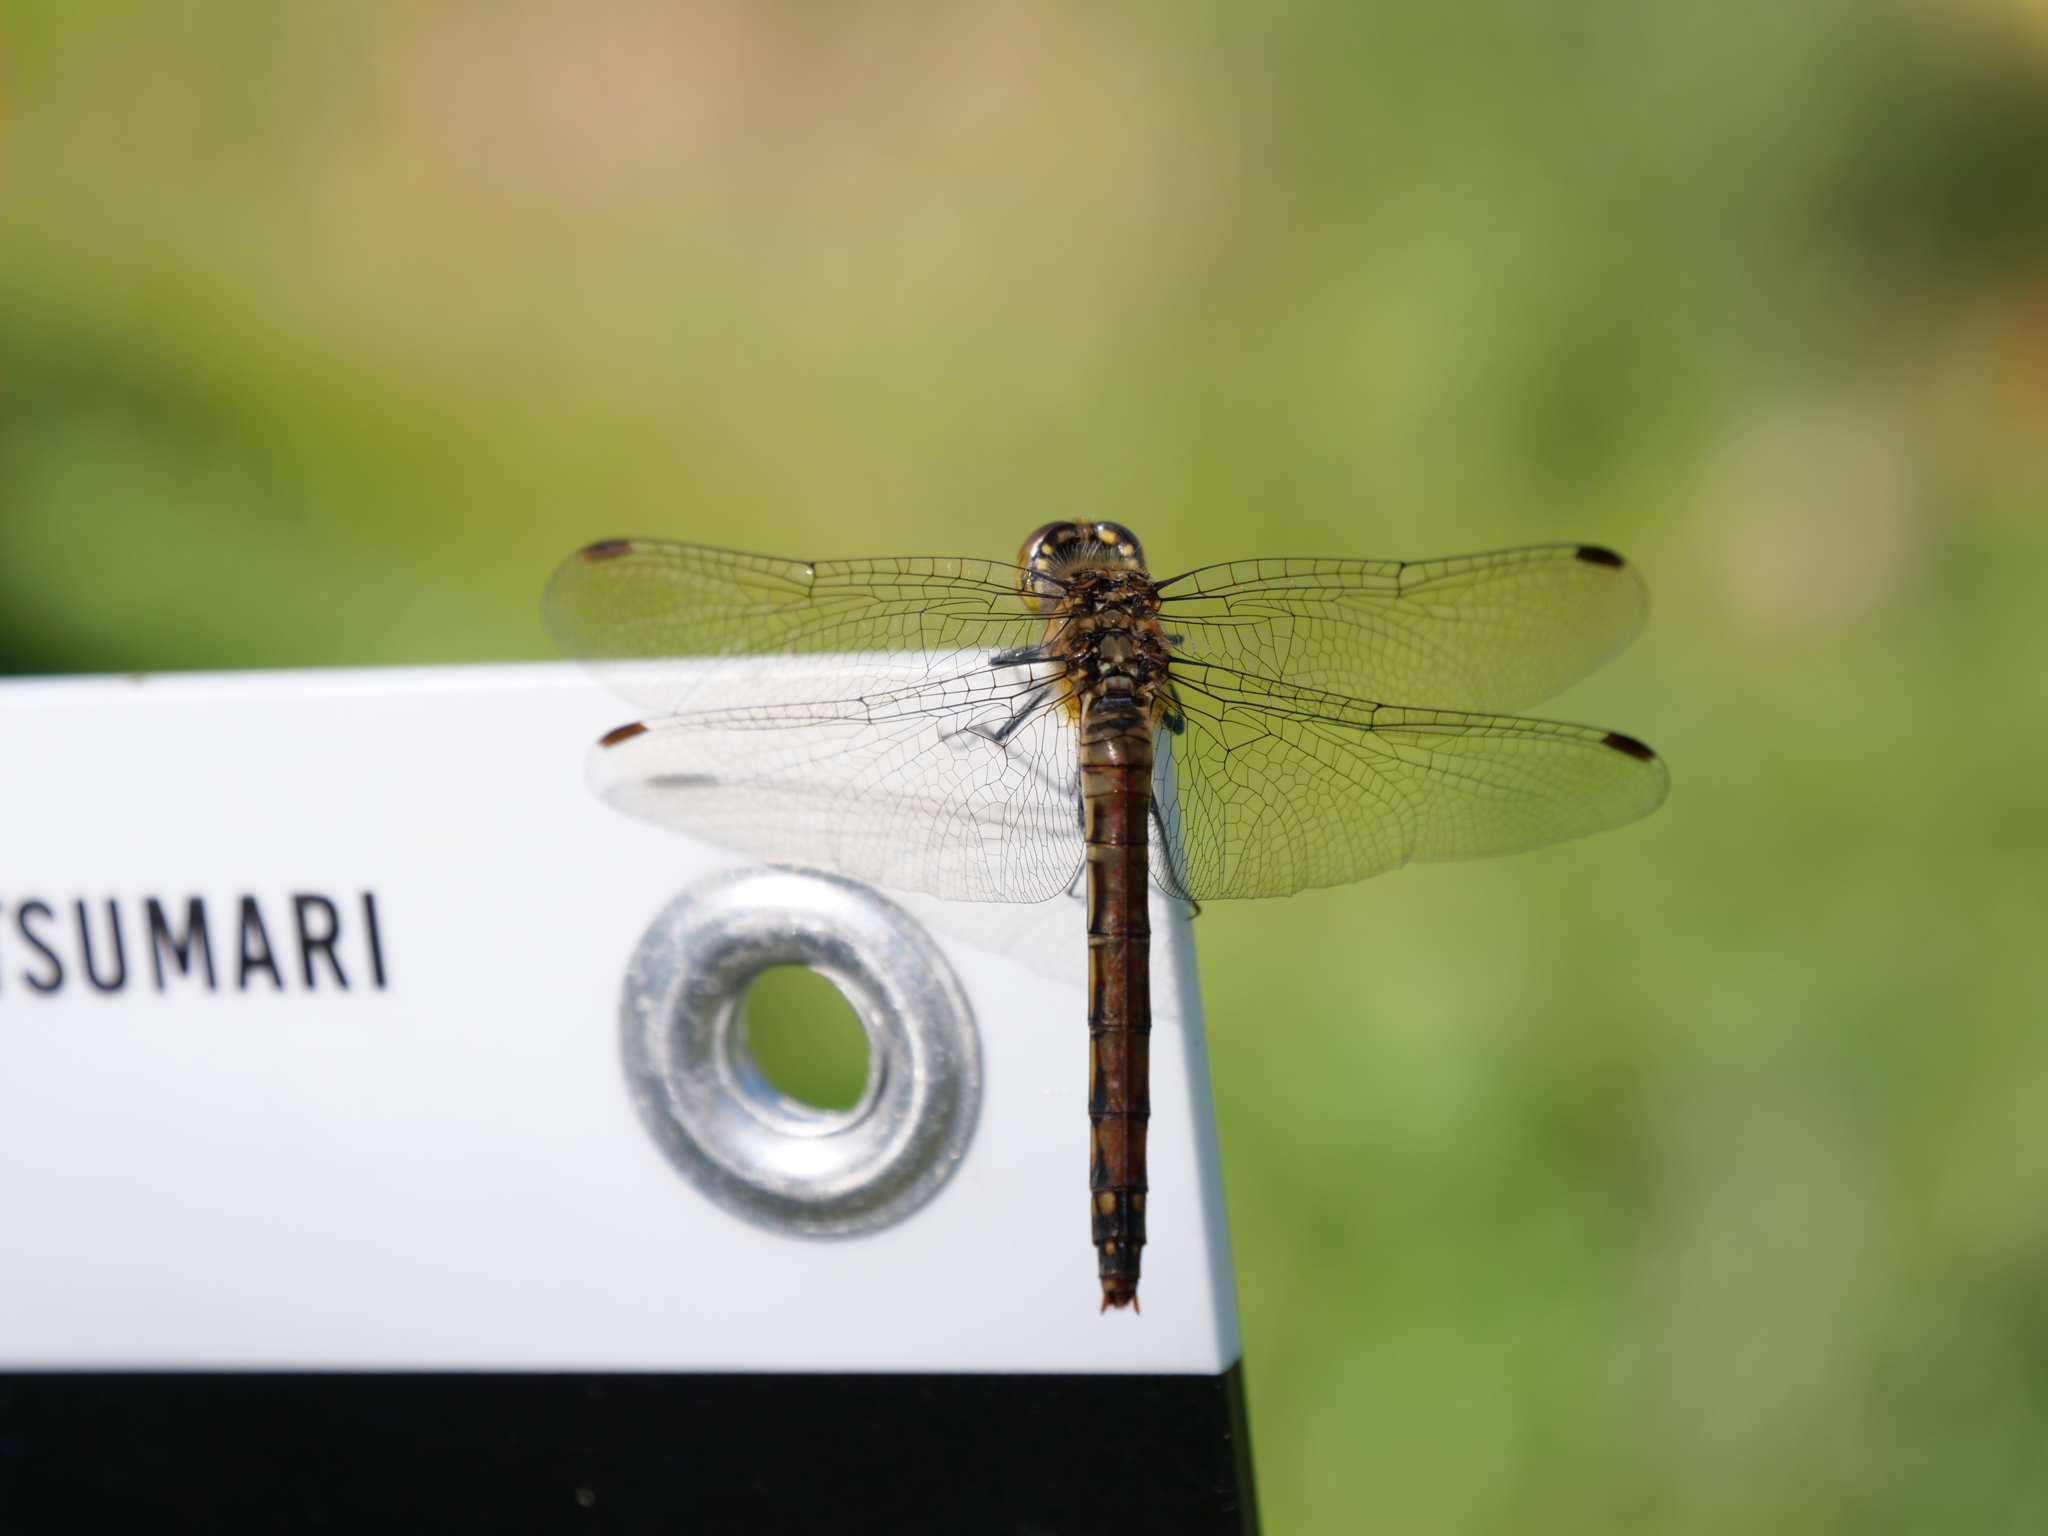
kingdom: Animalia
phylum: Arthropoda
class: Insecta
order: Odonata
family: Libellulidae
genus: Sympetrum
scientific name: Sympetrum frequens
